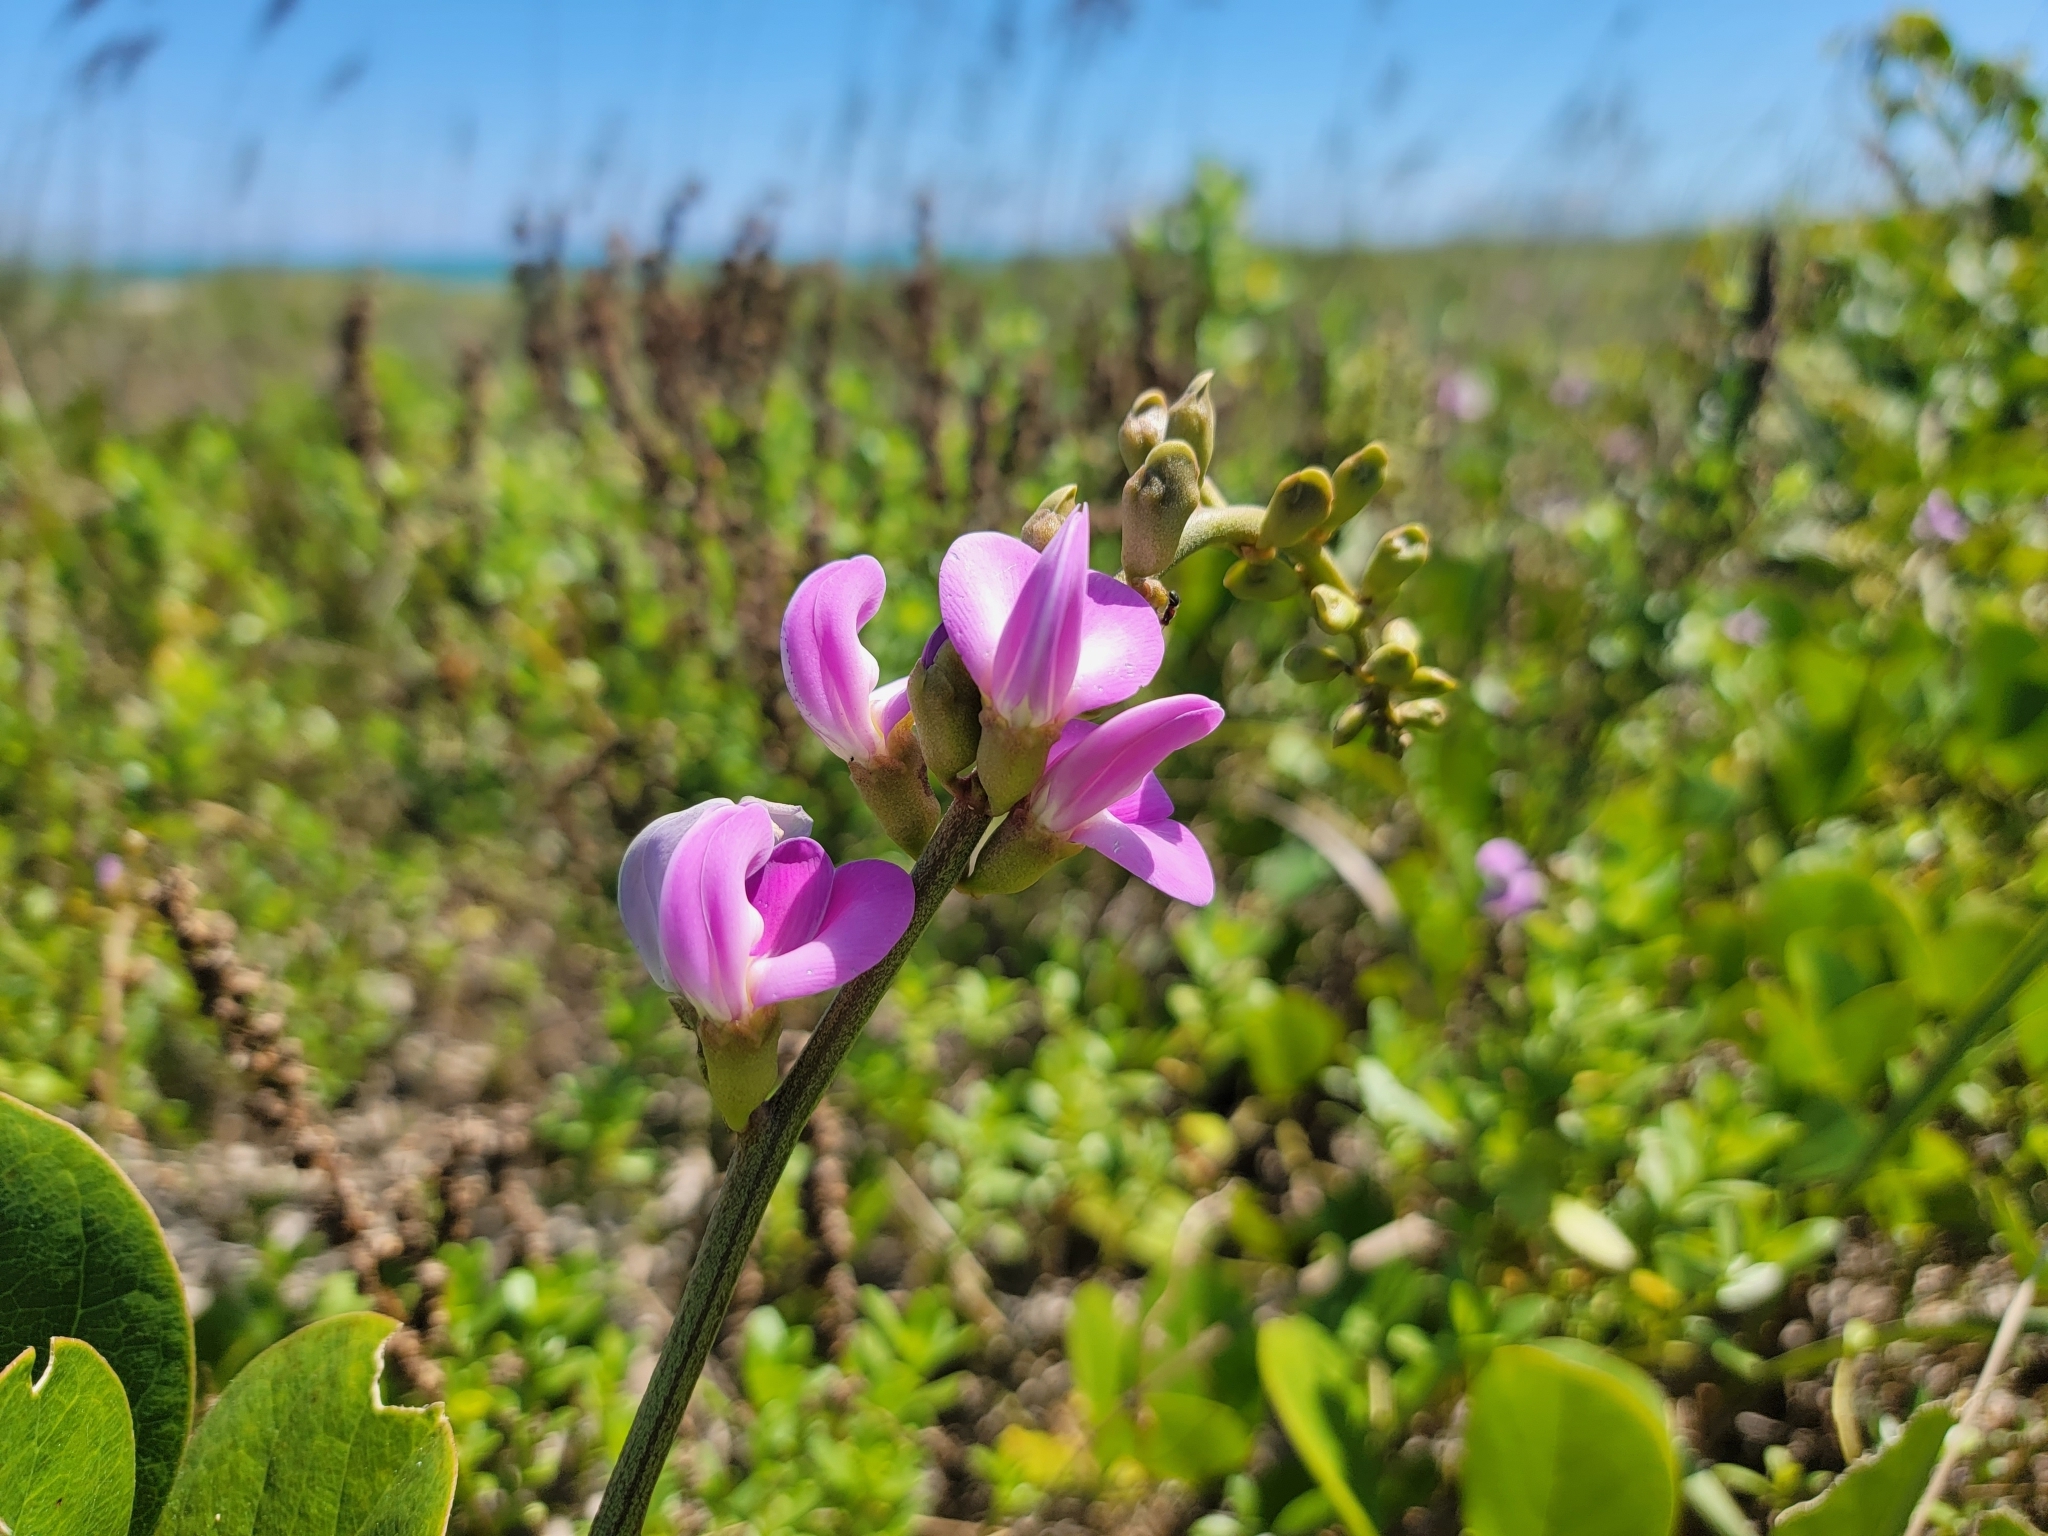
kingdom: Plantae
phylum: Tracheophyta
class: Magnoliopsida
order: Fabales
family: Fabaceae
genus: Canavalia
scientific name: Canavalia rosea
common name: Beach-bean
